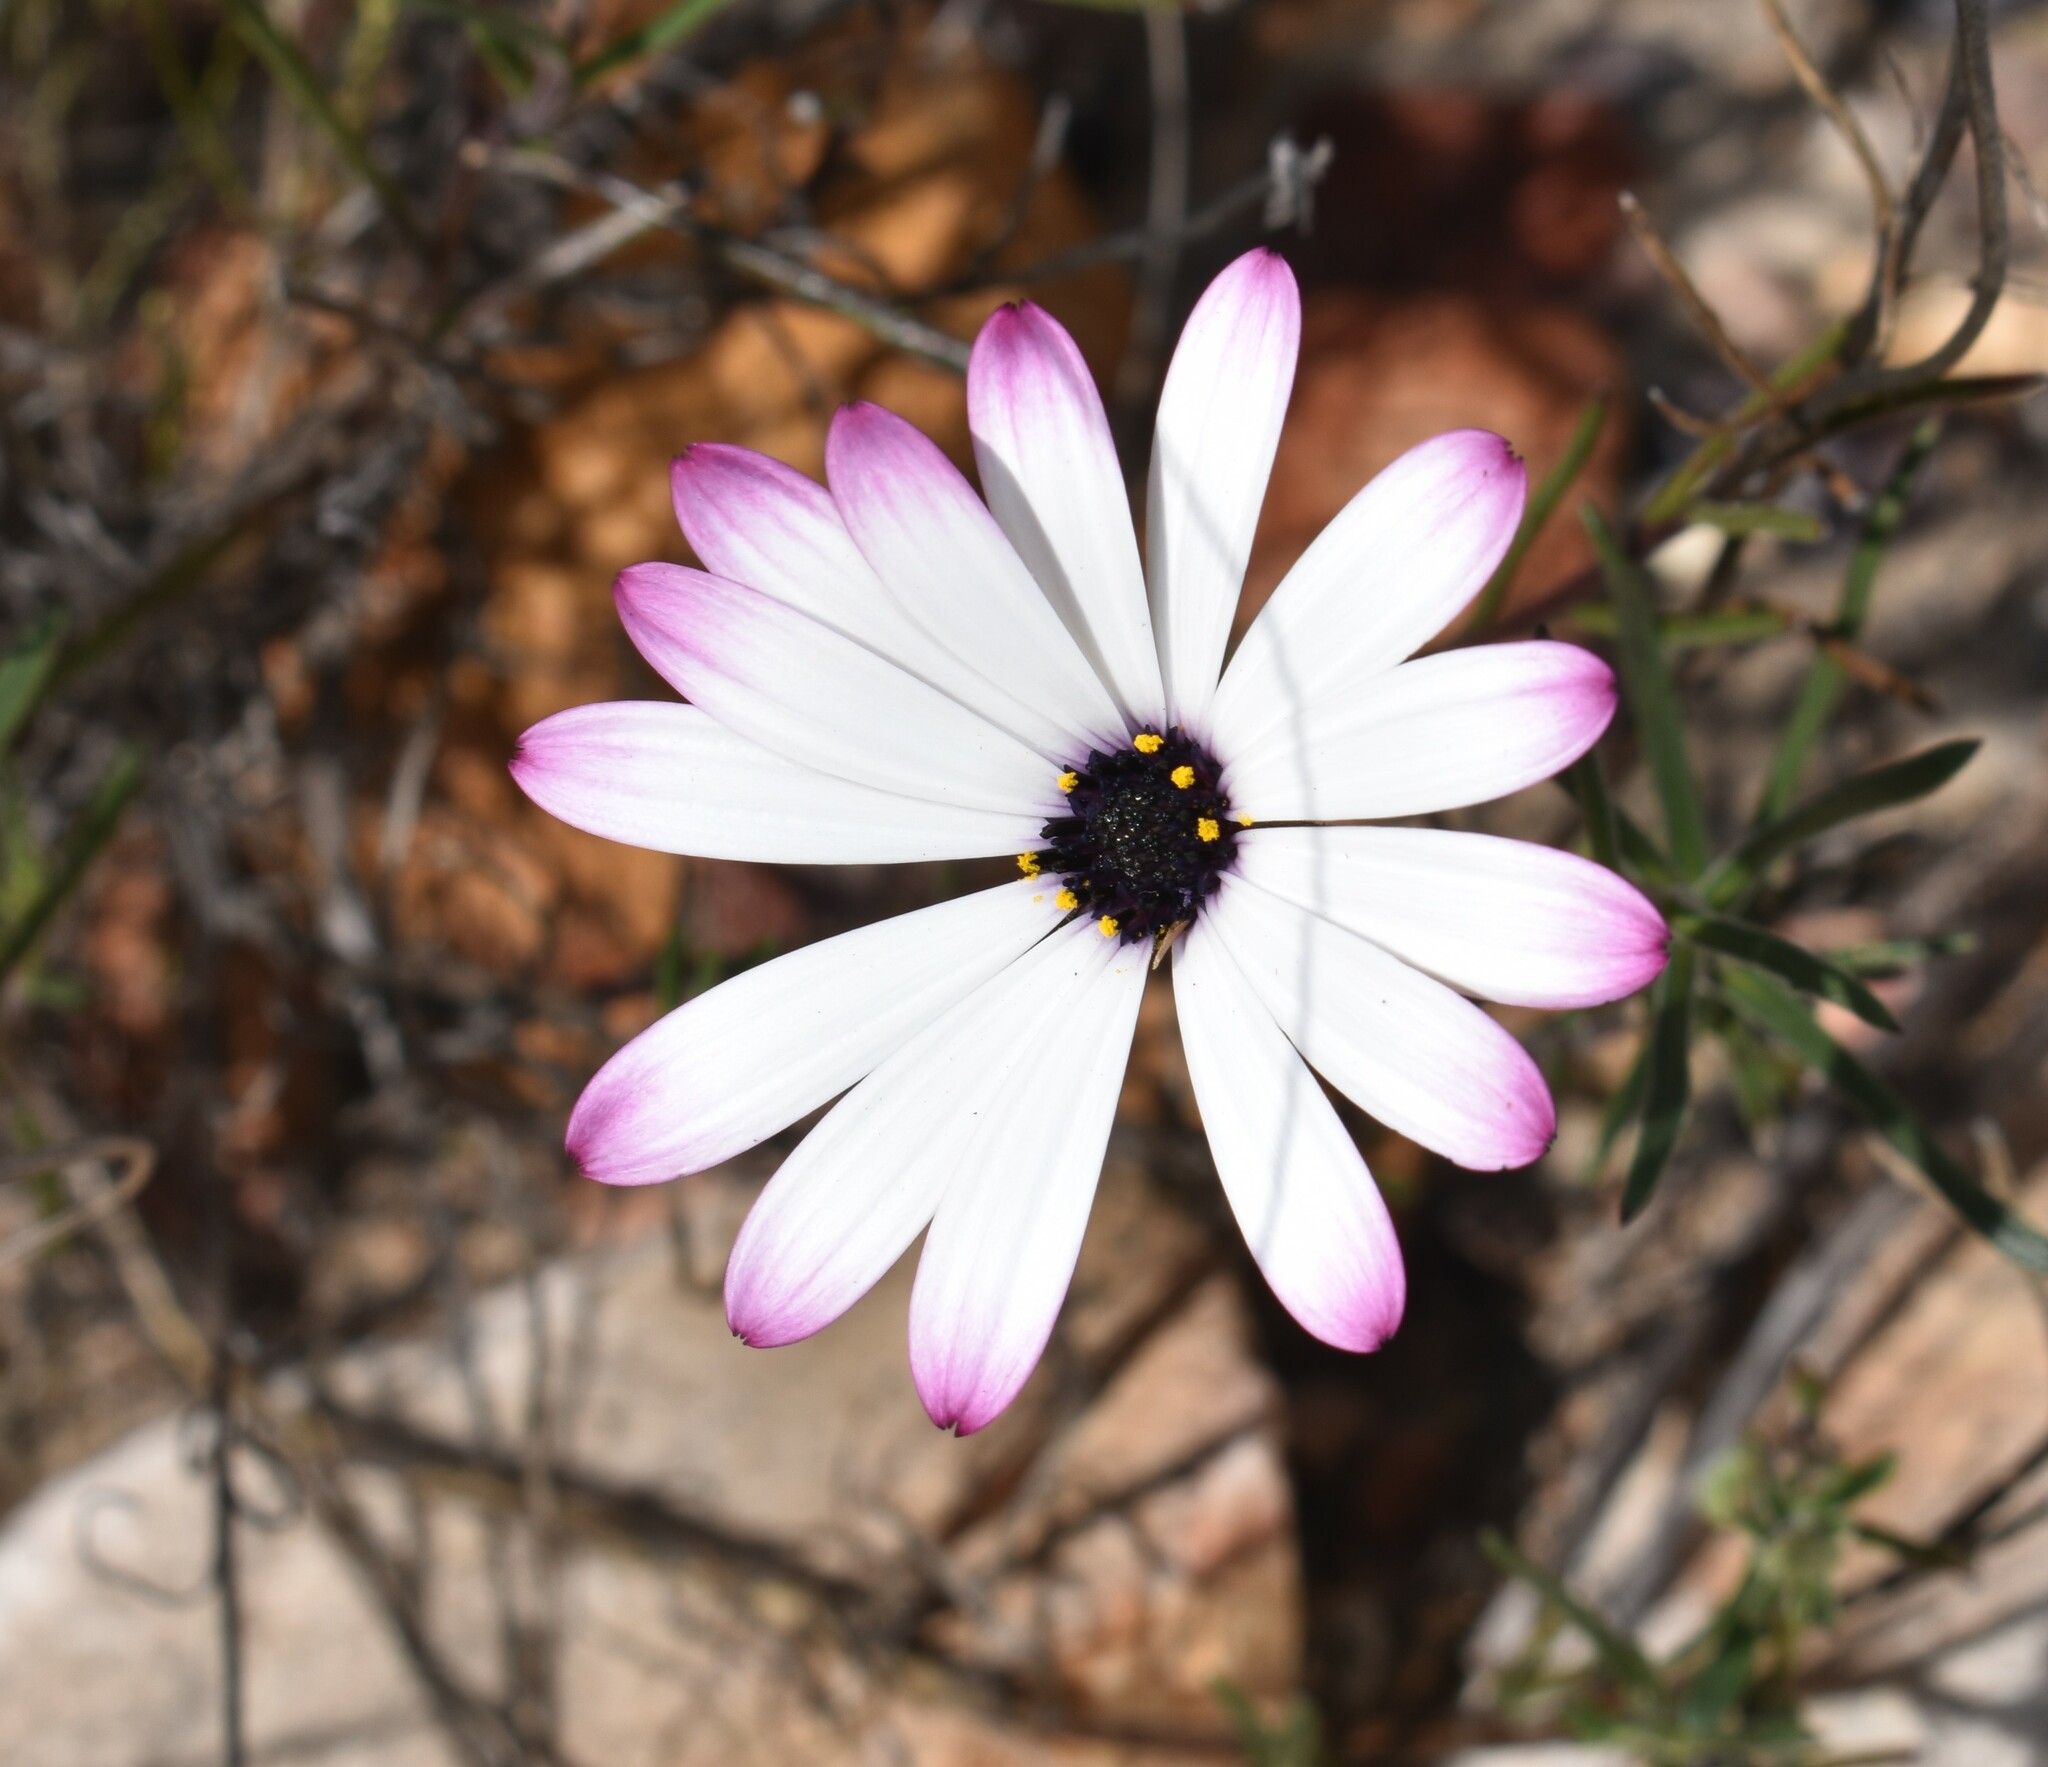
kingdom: Plantae
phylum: Tracheophyta
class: Magnoliopsida
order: Asterales
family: Asteraceae
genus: Dimorphotheca
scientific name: Dimorphotheca montana
